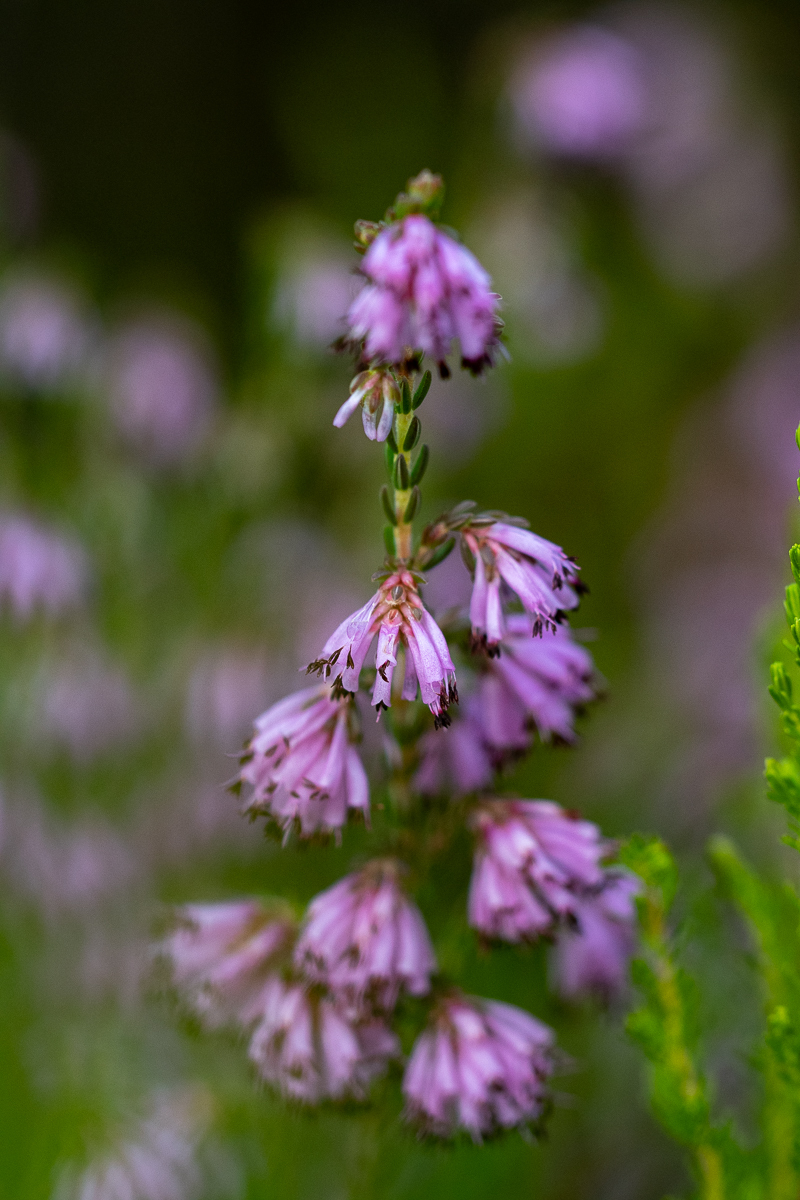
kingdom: Plantae
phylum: Tracheophyta
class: Magnoliopsida
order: Ericales
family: Ericaceae
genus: Erica
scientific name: Erica labialis
